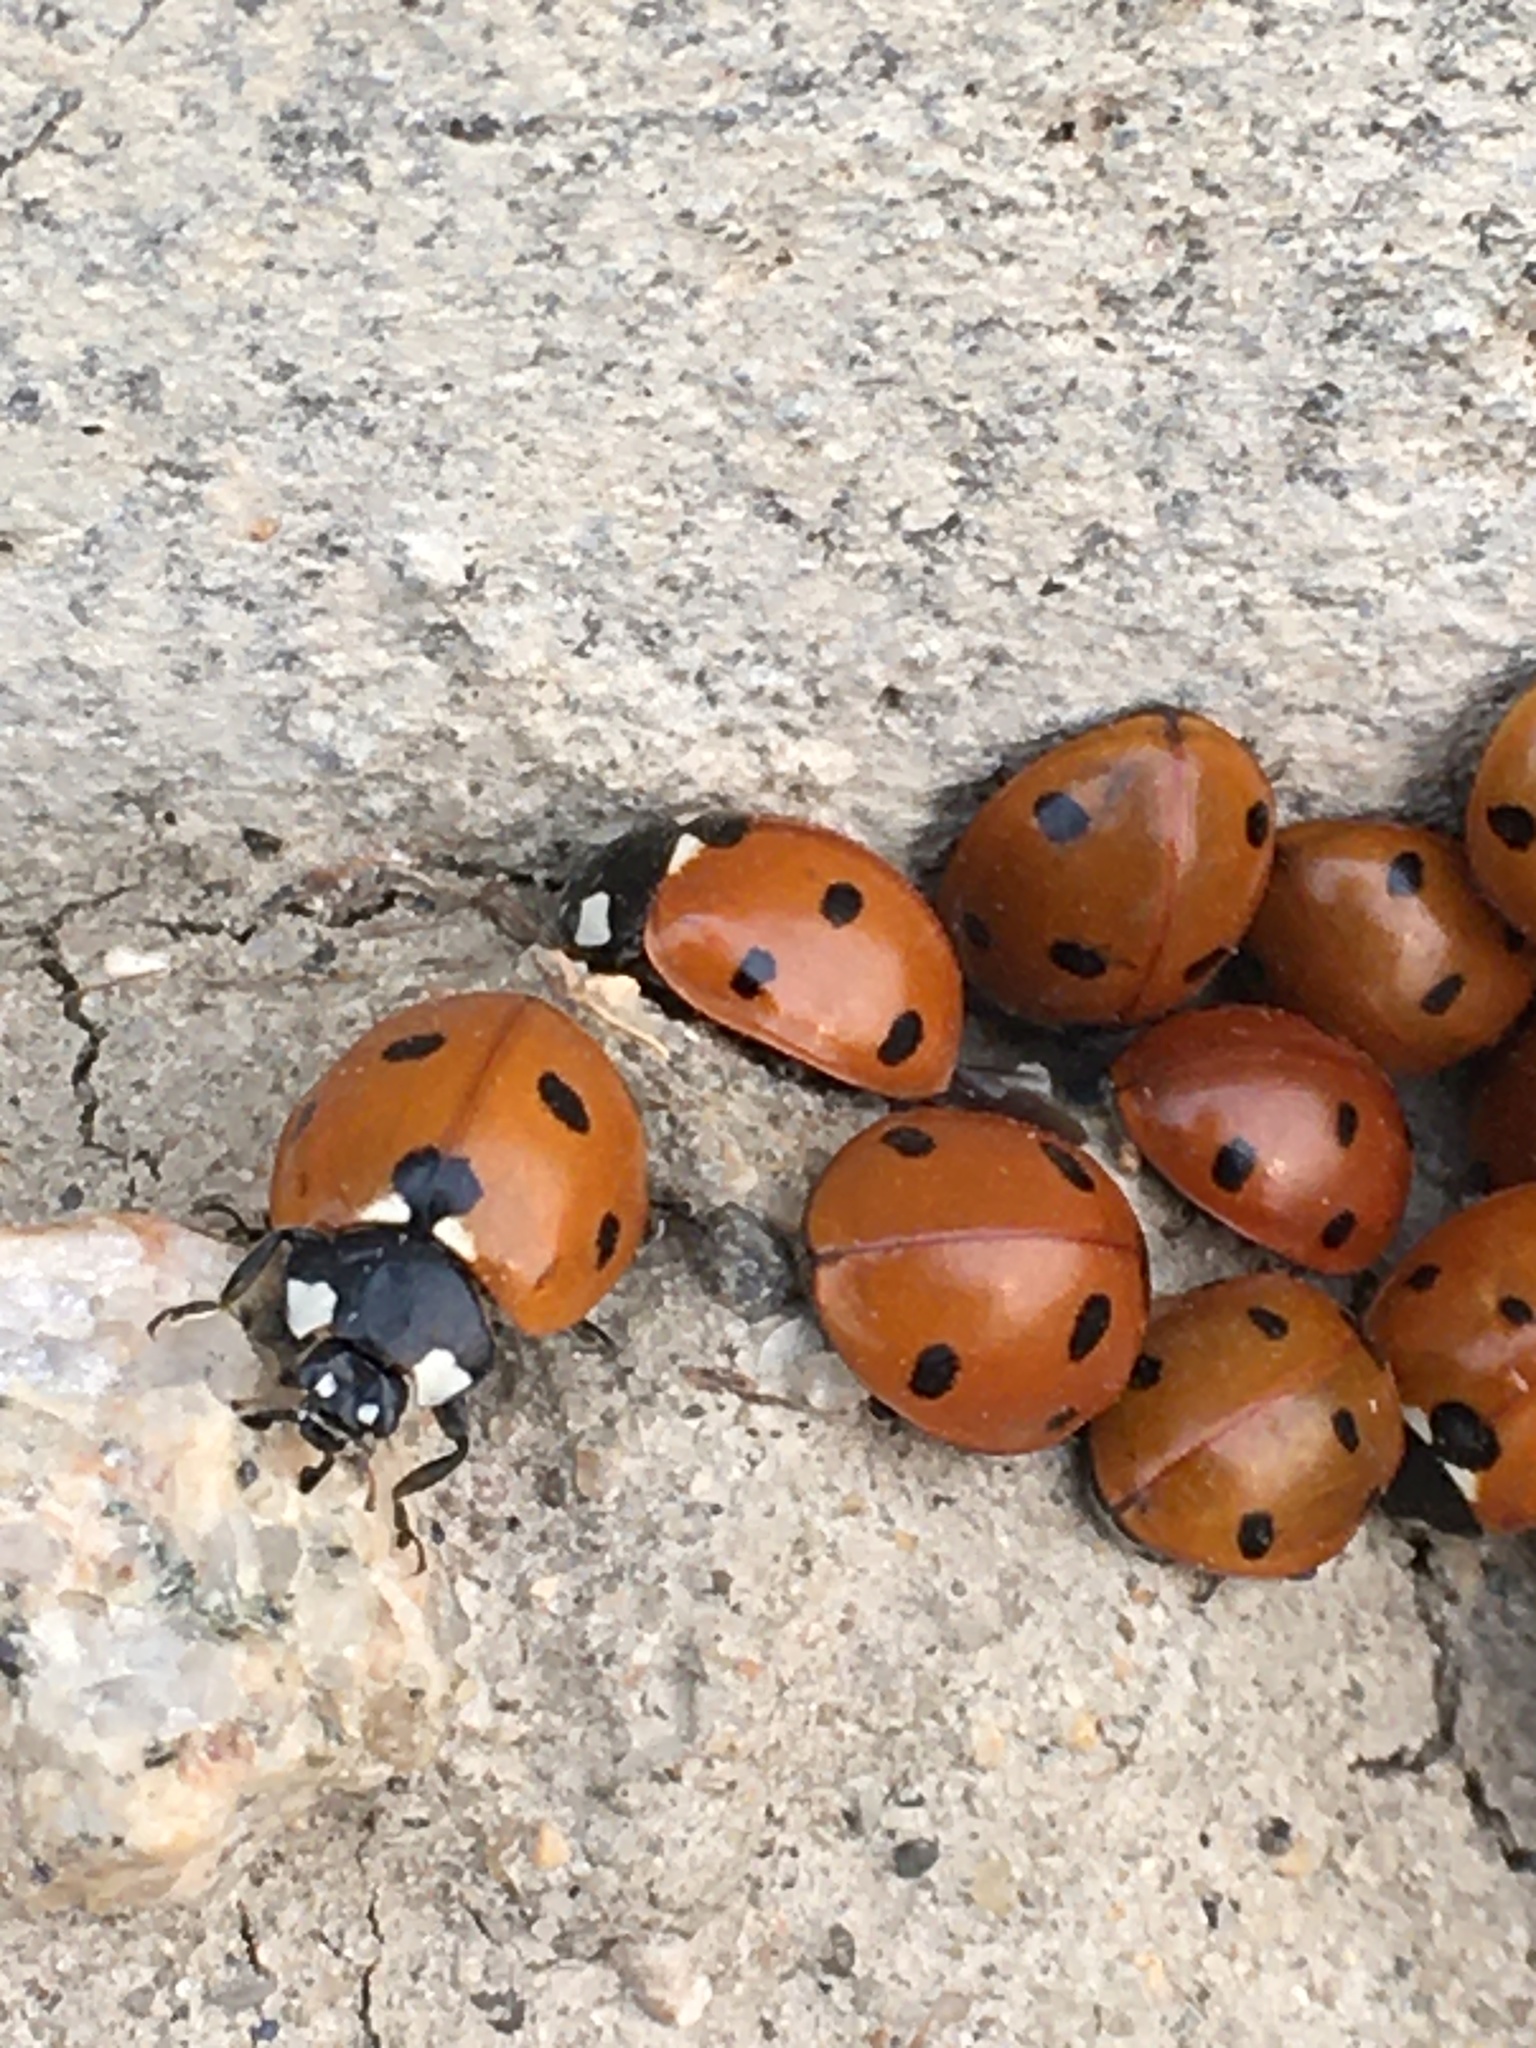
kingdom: Animalia
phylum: Arthropoda
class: Insecta
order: Coleoptera
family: Coccinellidae
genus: Coccinella
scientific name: Coccinella septempunctata
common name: Sevenspotted lady beetle
